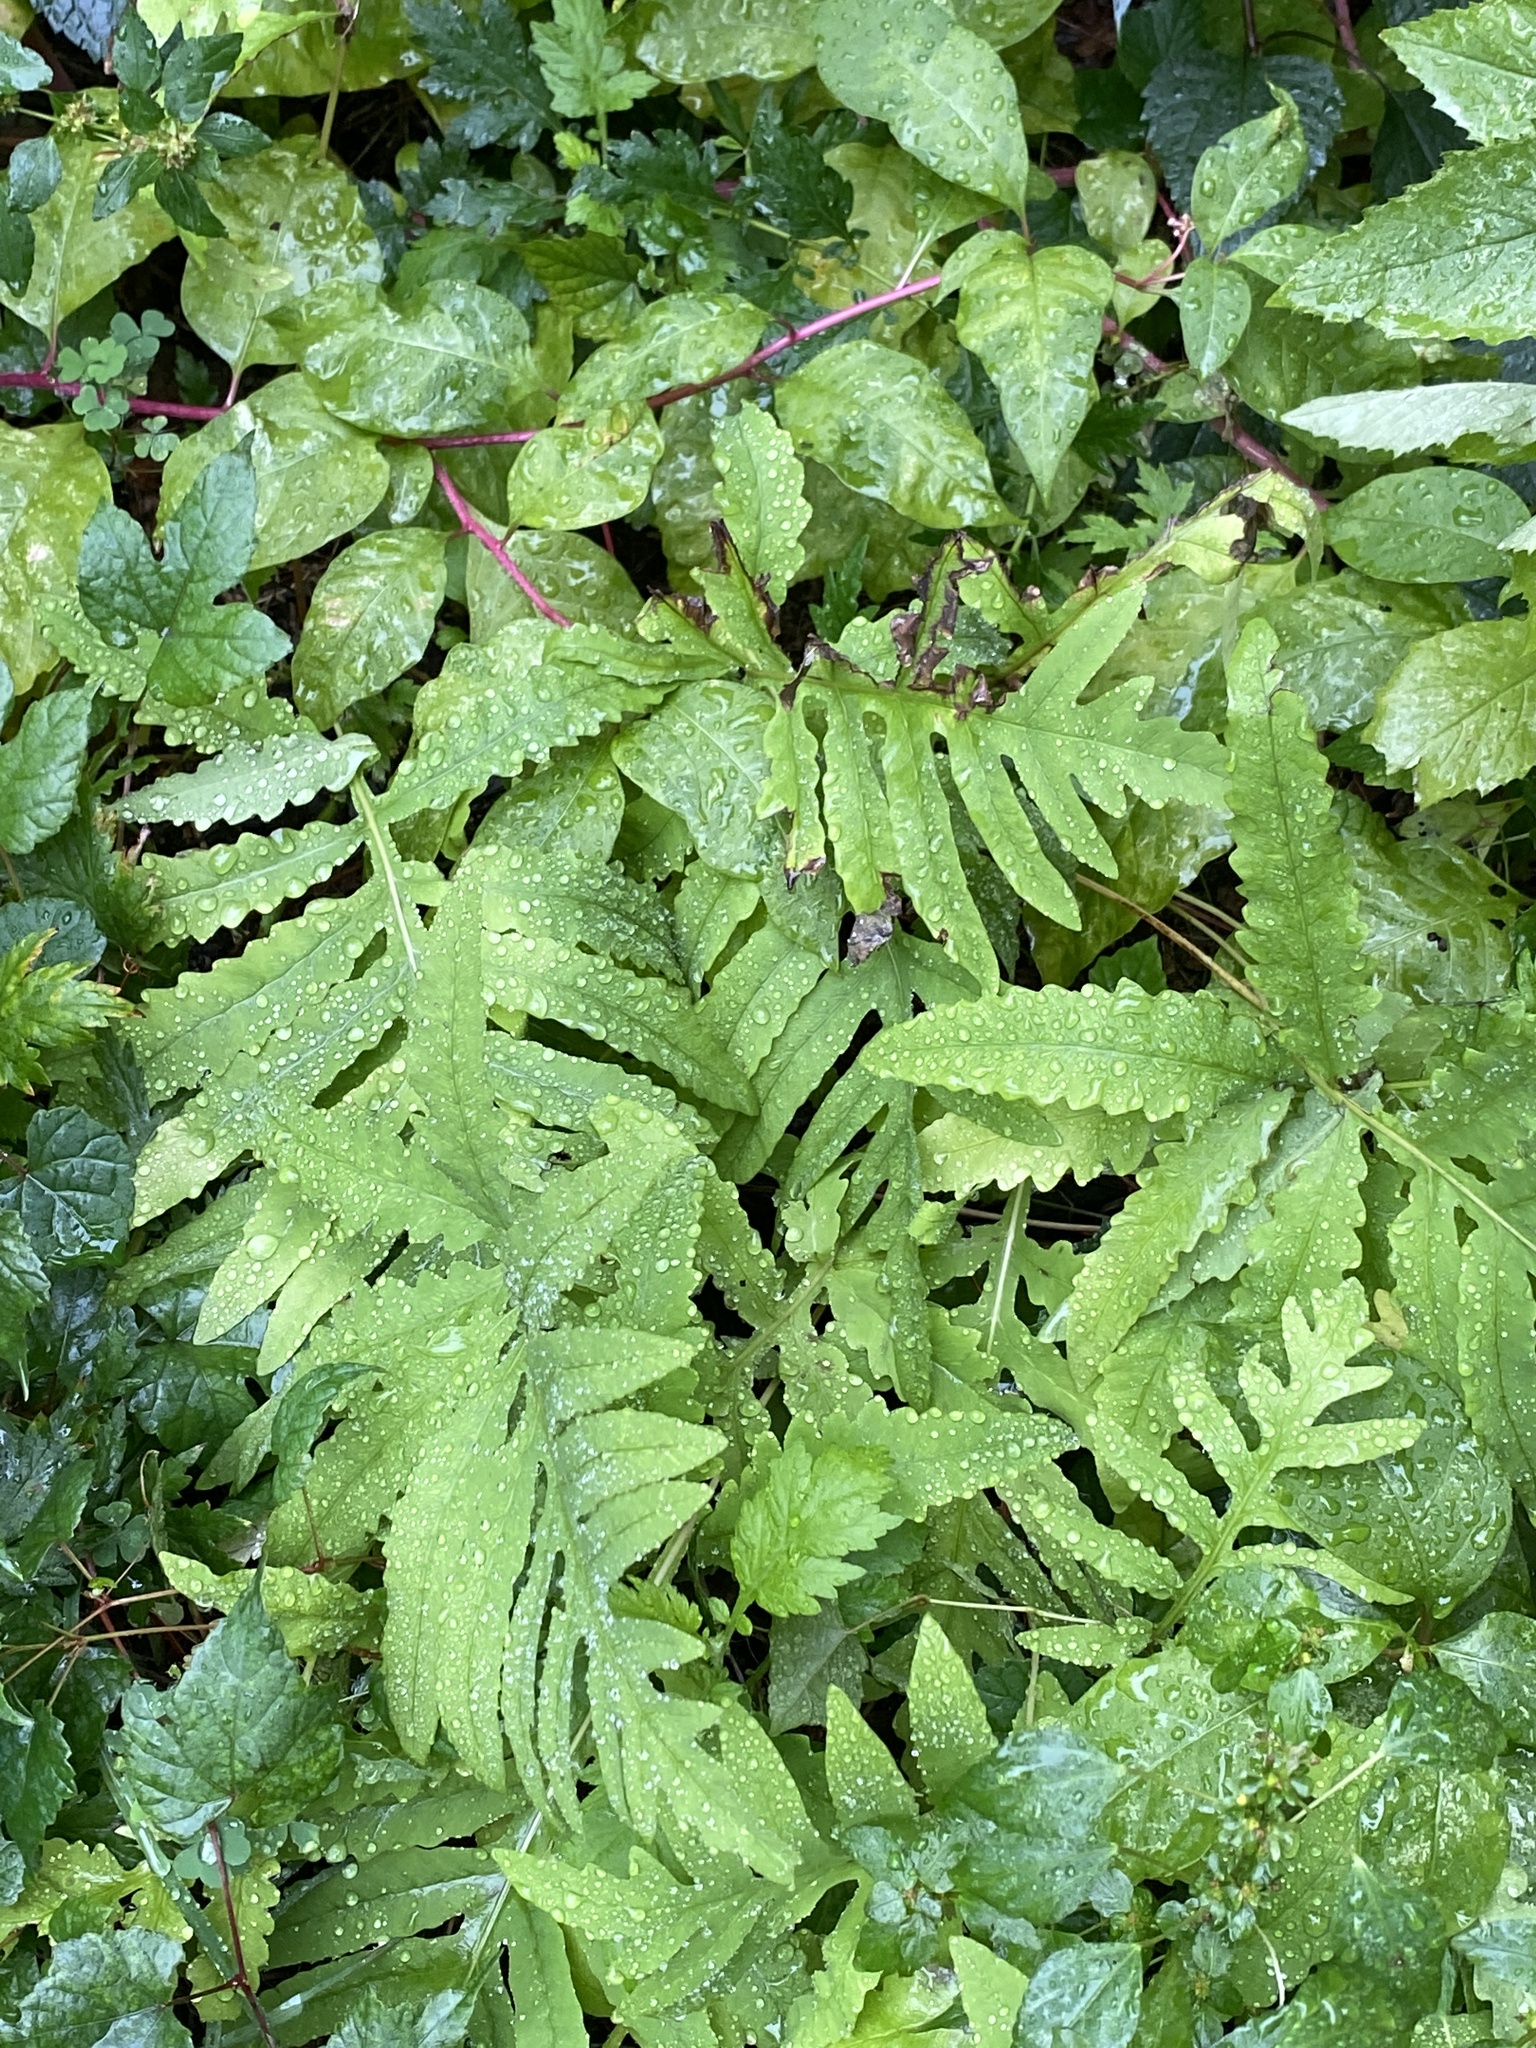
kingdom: Plantae
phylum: Tracheophyta
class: Polypodiopsida
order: Polypodiales
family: Onocleaceae
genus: Onoclea
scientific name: Onoclea sensibilis
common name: Sensitive fern
